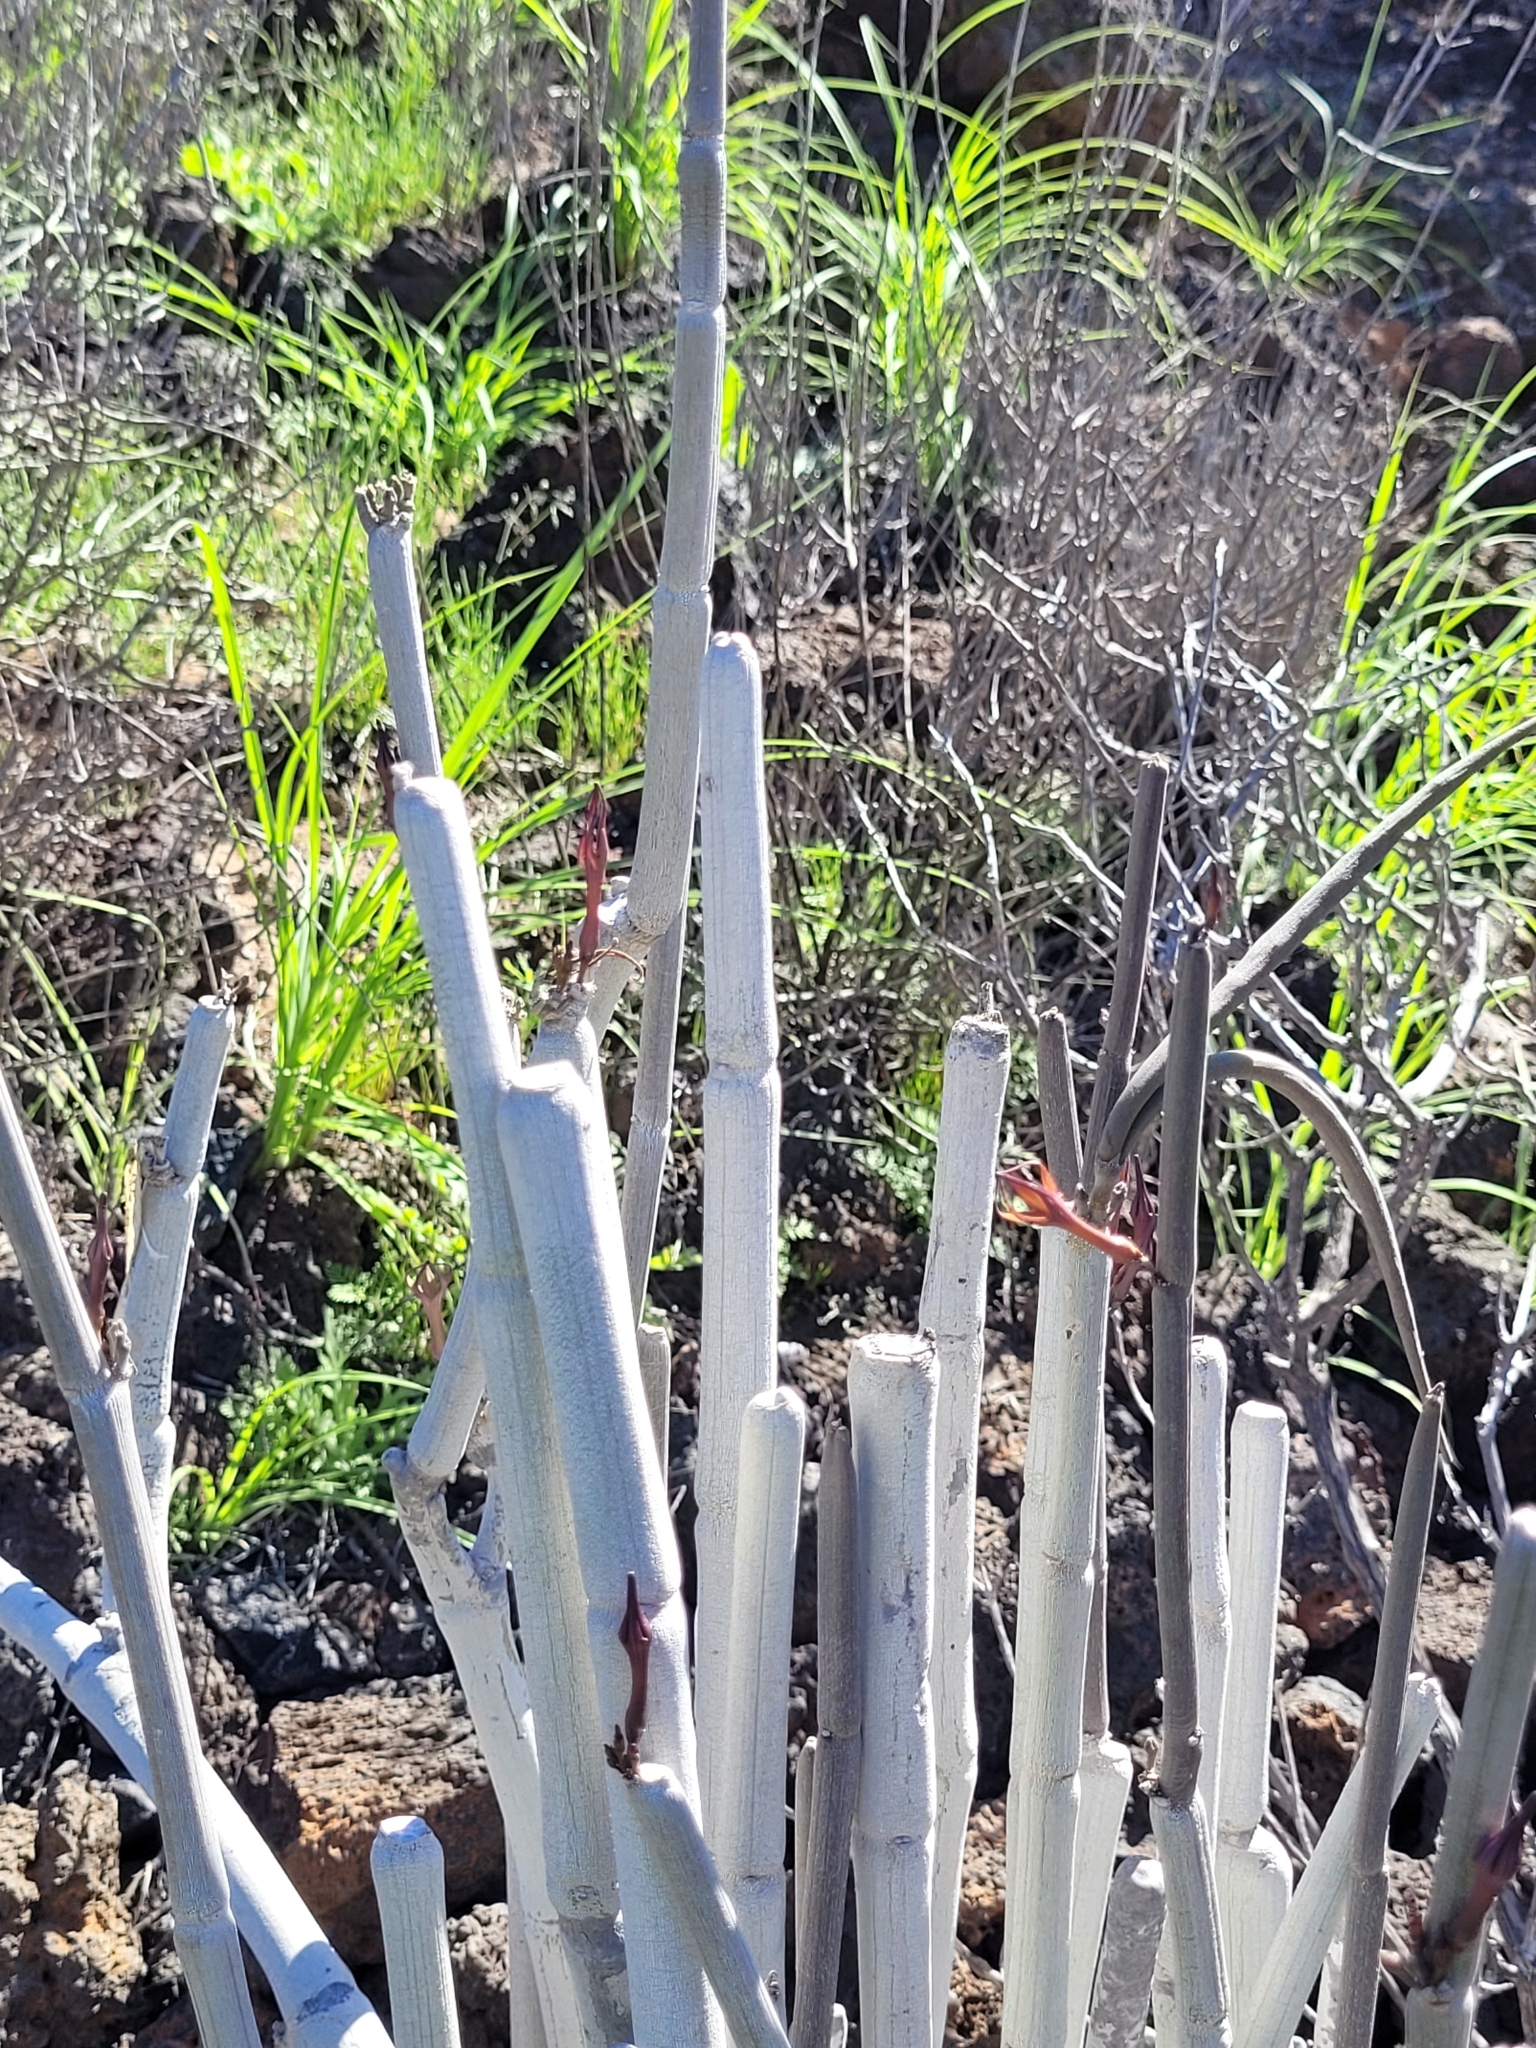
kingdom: Plantae
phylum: Tracheophyta
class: Magnoliopsida
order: Gentianales
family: Apocynaceae
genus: Ceropegia
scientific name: Ceropegia fusca
